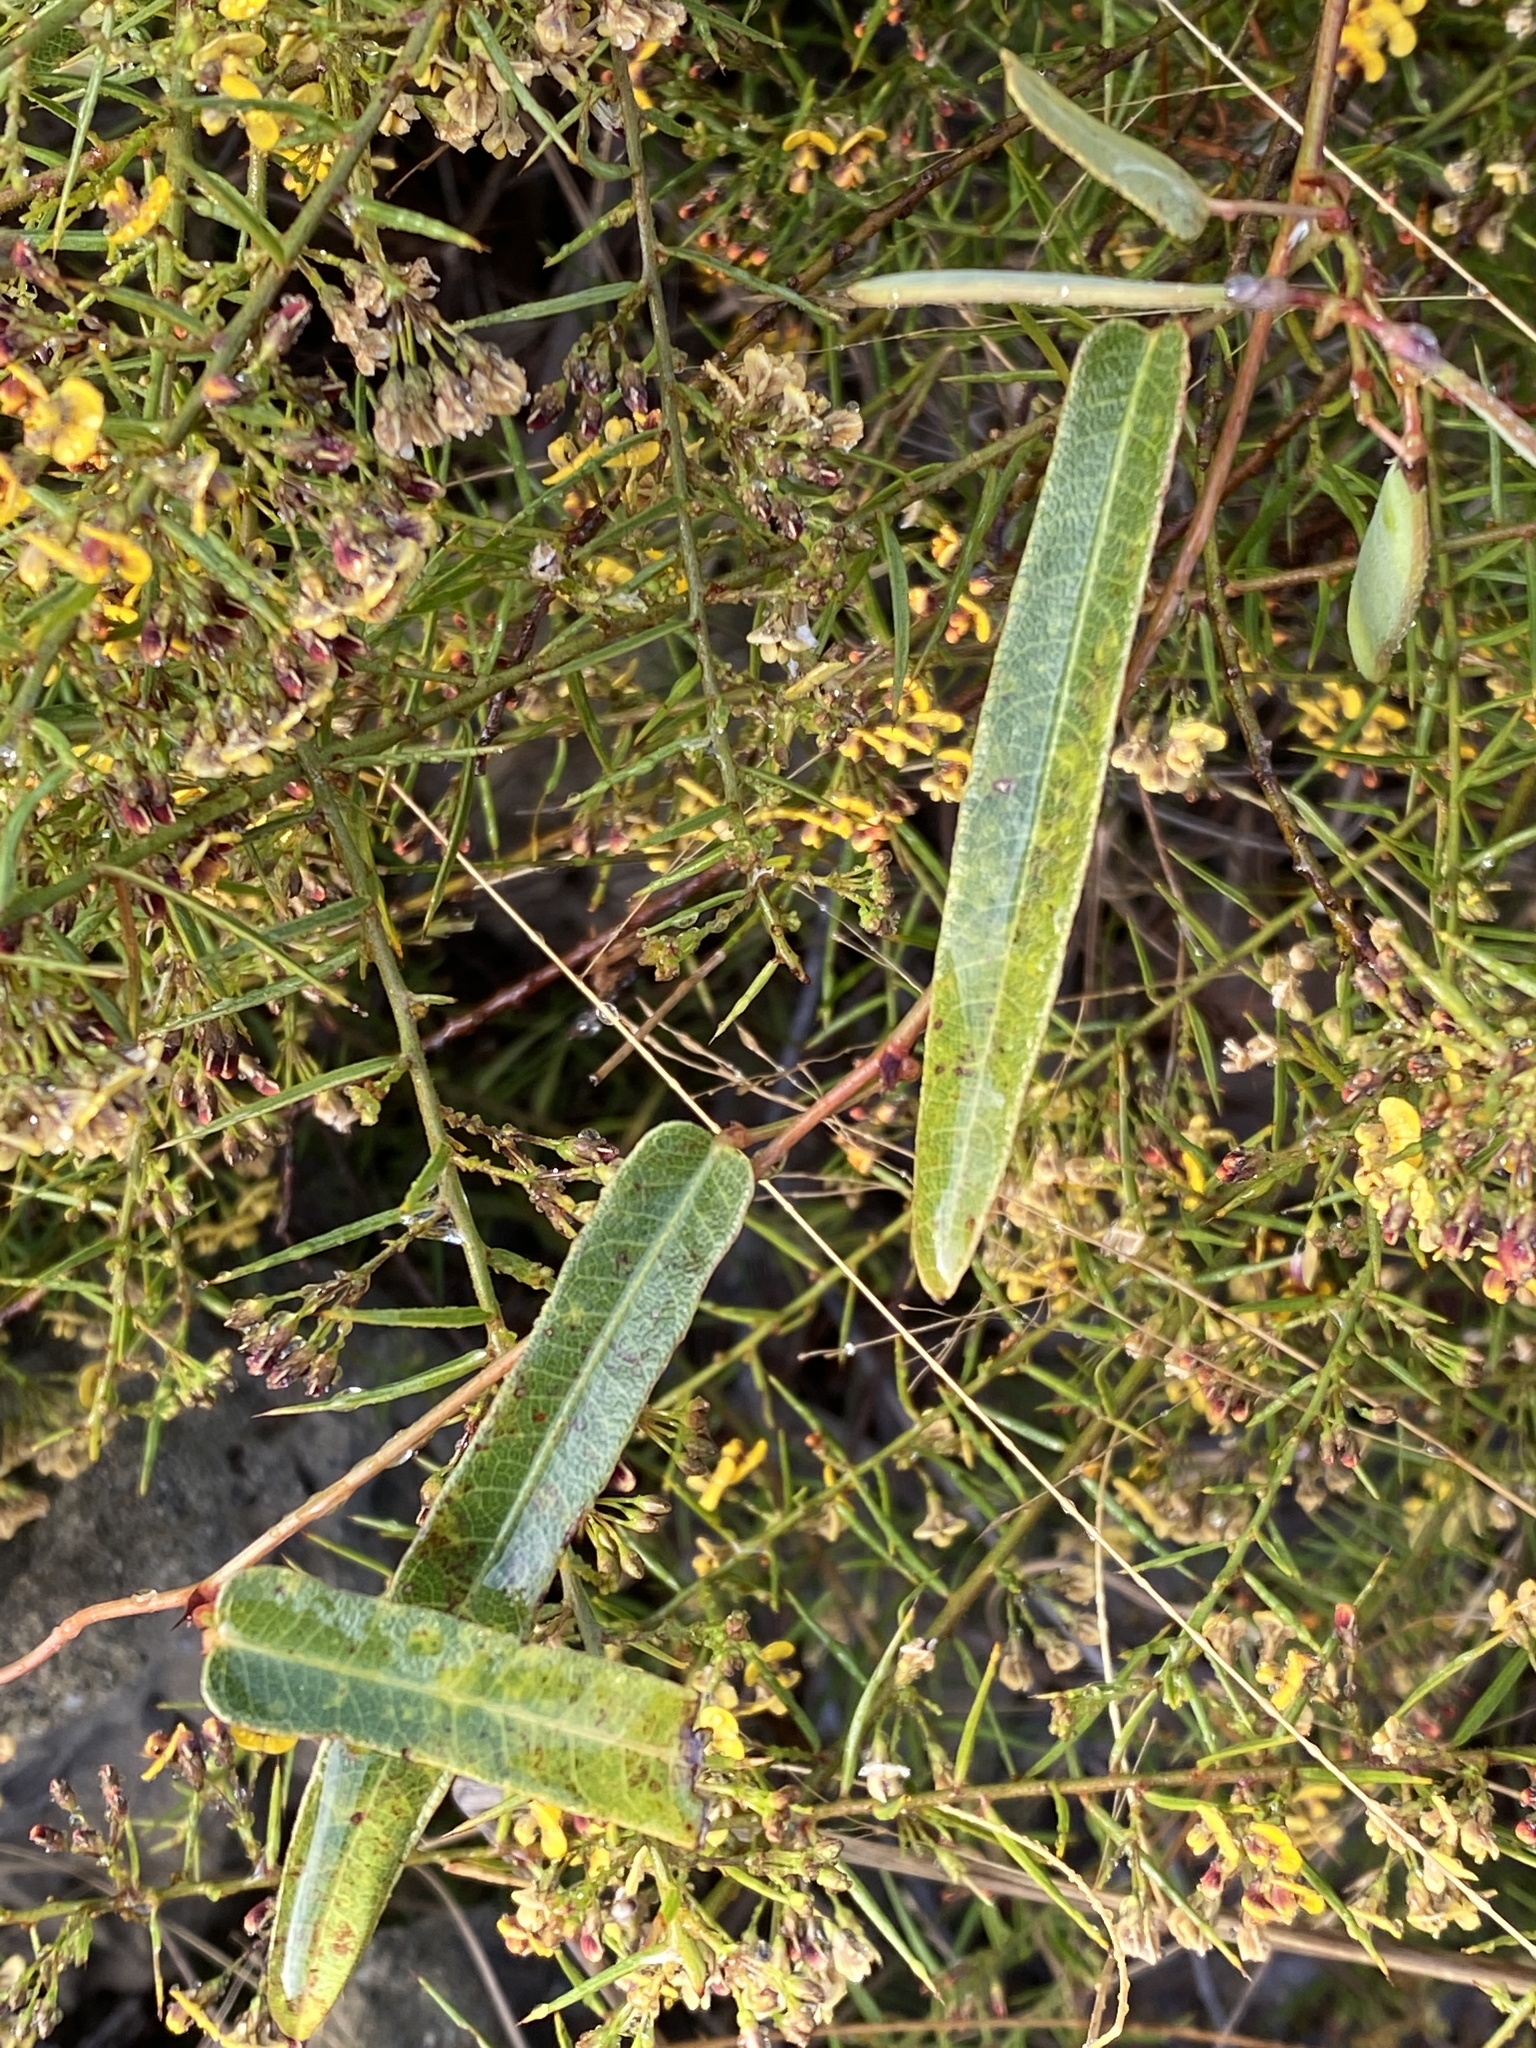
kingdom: Plantae
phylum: Tracheophyta
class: Magnoliopsida
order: Fabales
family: Fabaceae
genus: Hardenbergia
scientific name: Hardenbergia violacea
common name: Coral-pea
